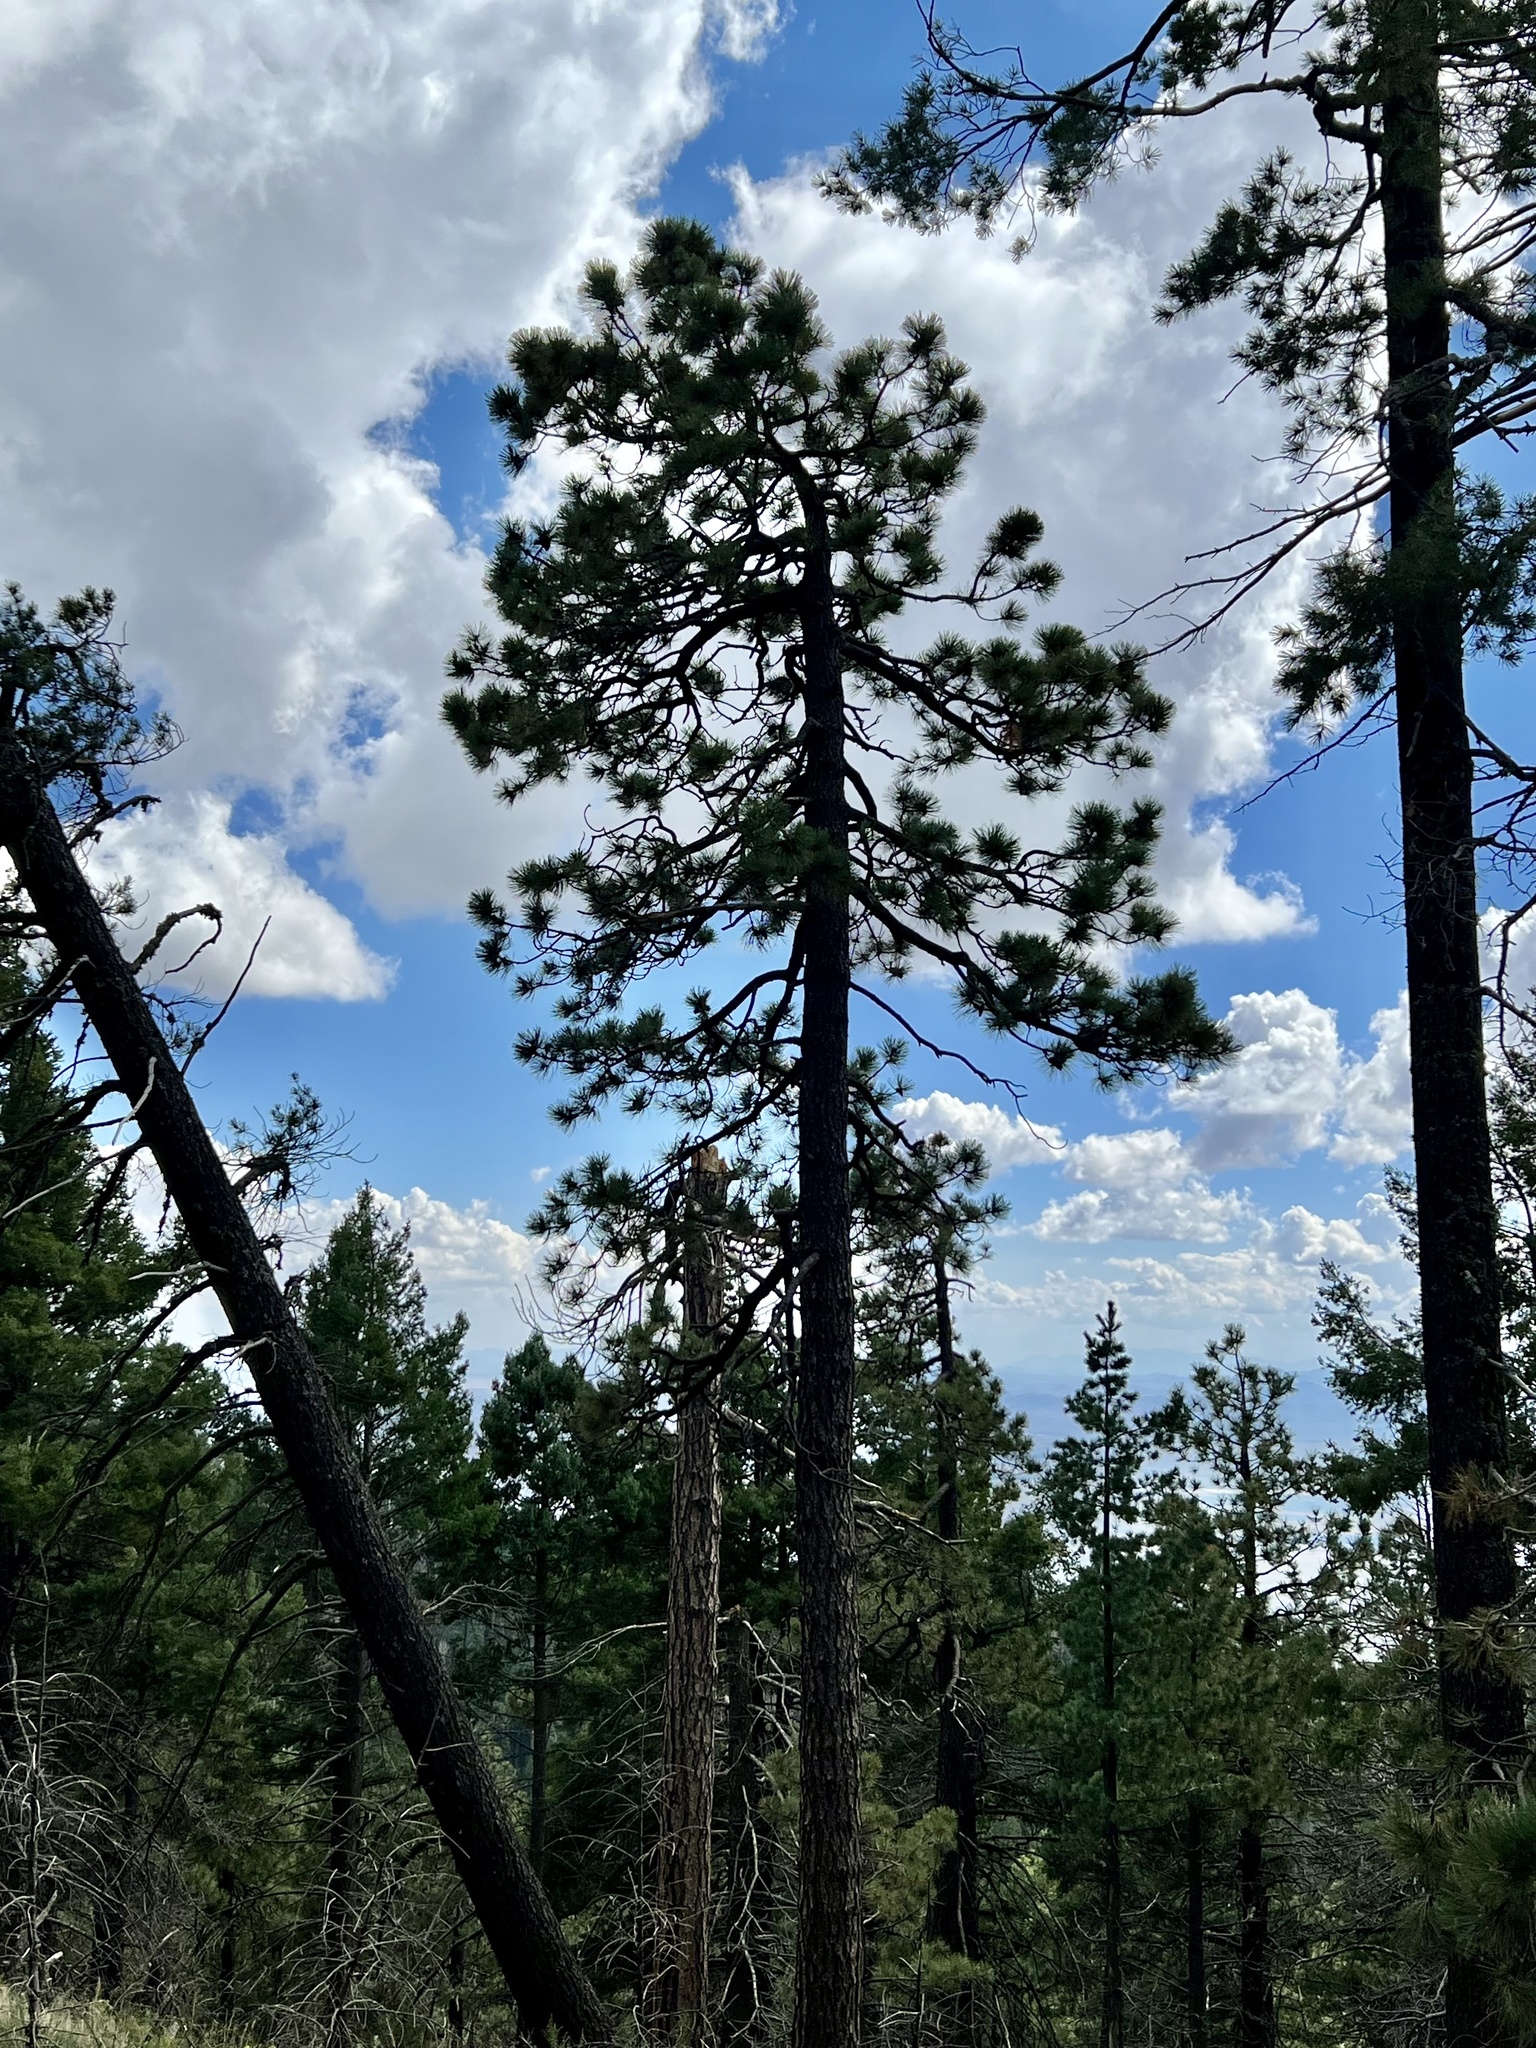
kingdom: Plantae
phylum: Tracheophyta
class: Pinopsida
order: Pinales
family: Pinaceae
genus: Pinus
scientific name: Pinus ponderosa
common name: Western yellow-pine
